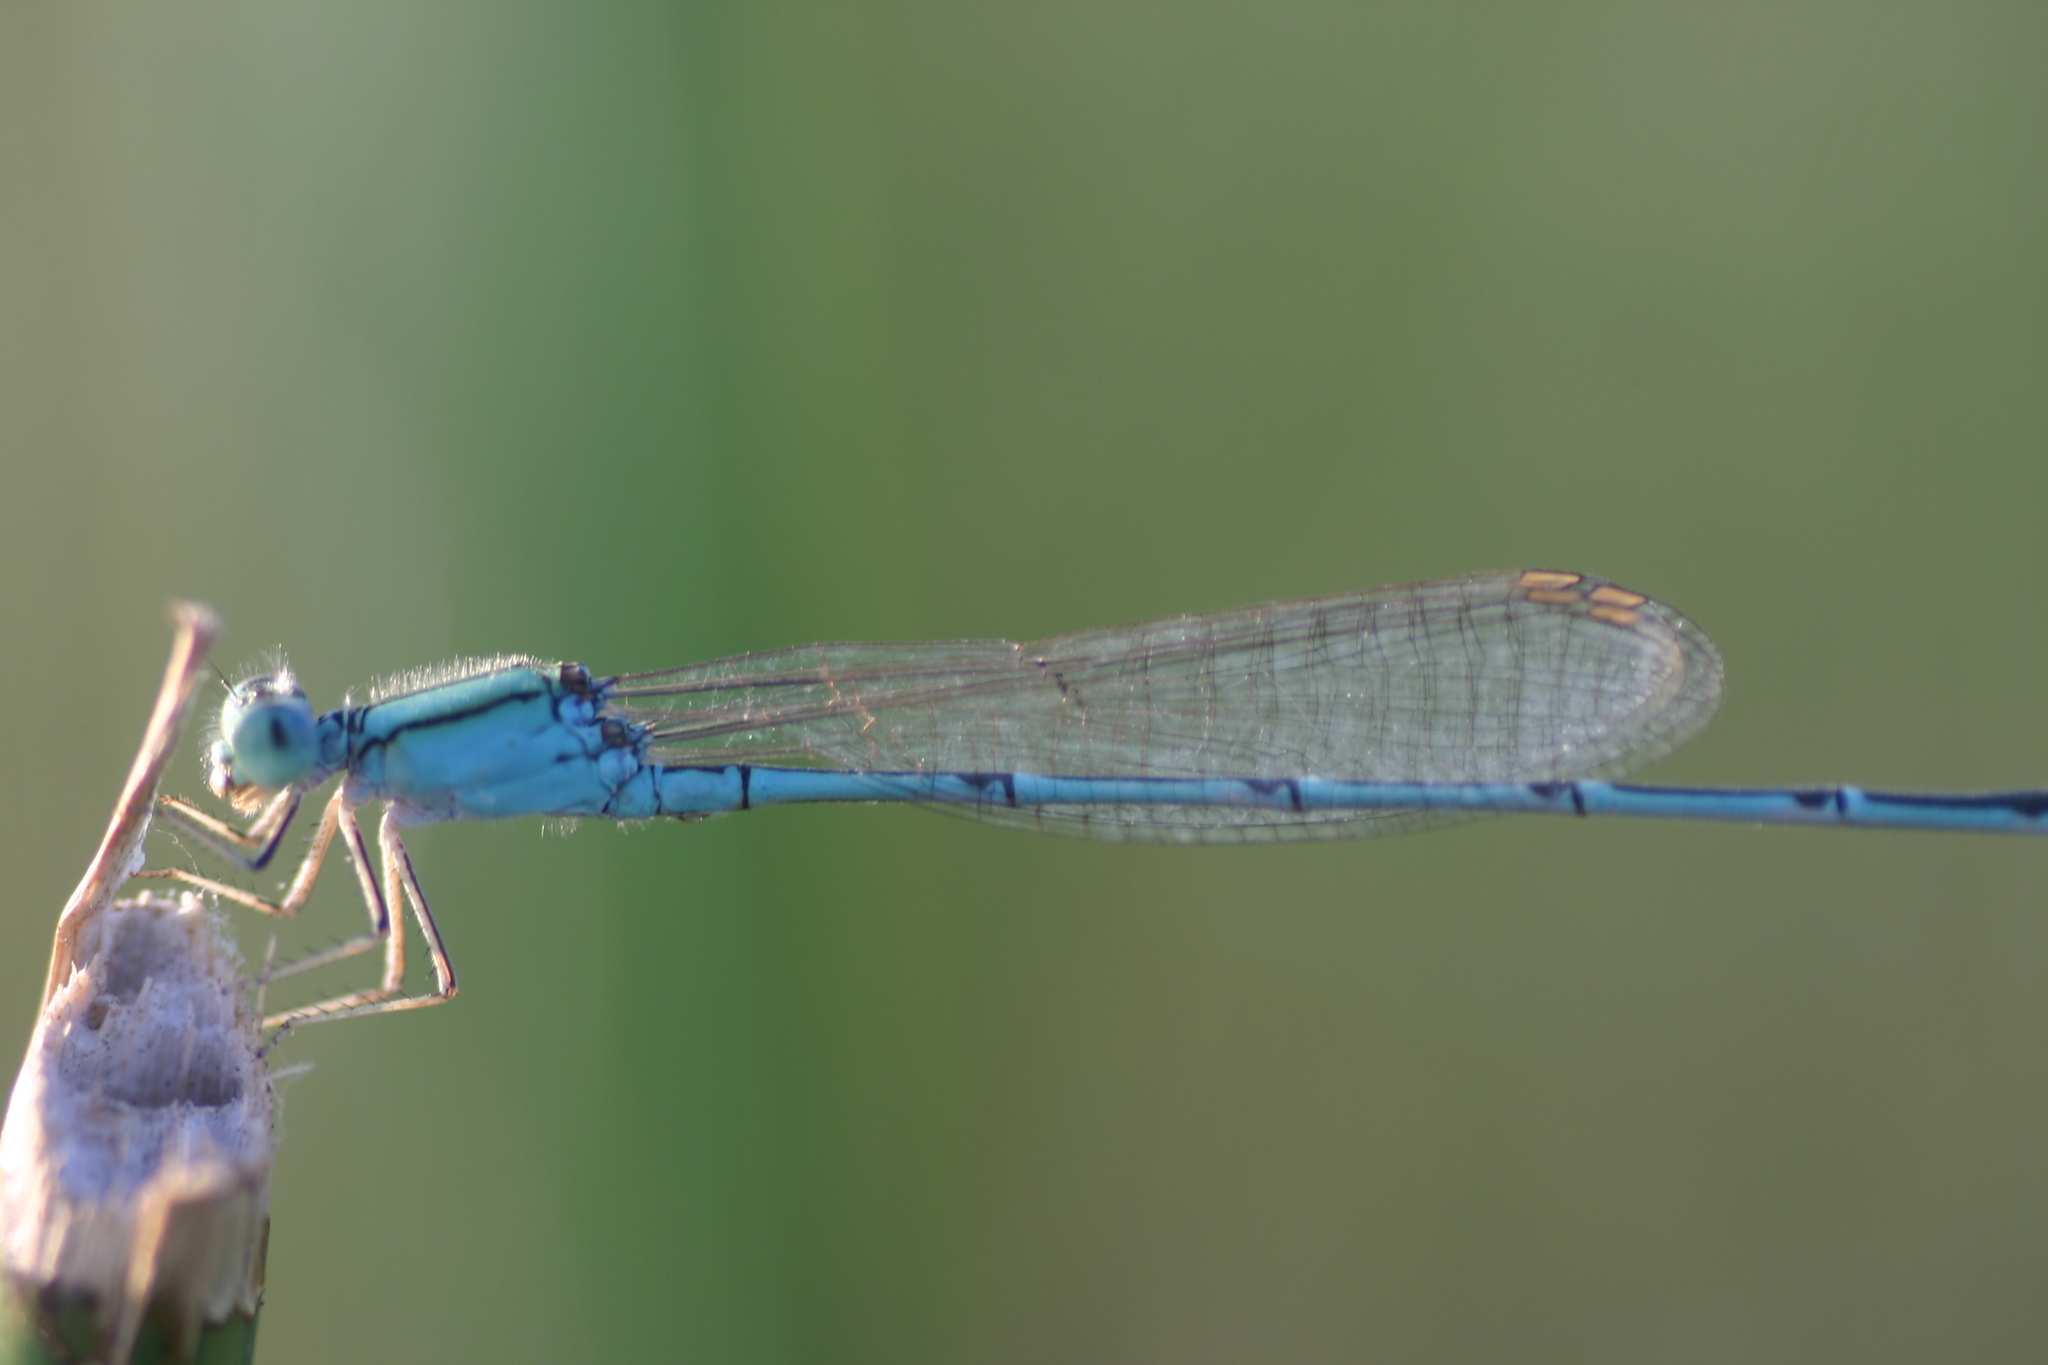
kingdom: Animalia
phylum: Arthropoda
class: Insecta
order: Odonata
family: Coenagrionidae
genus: Pseudagrion
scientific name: Pseudagrion decorum
